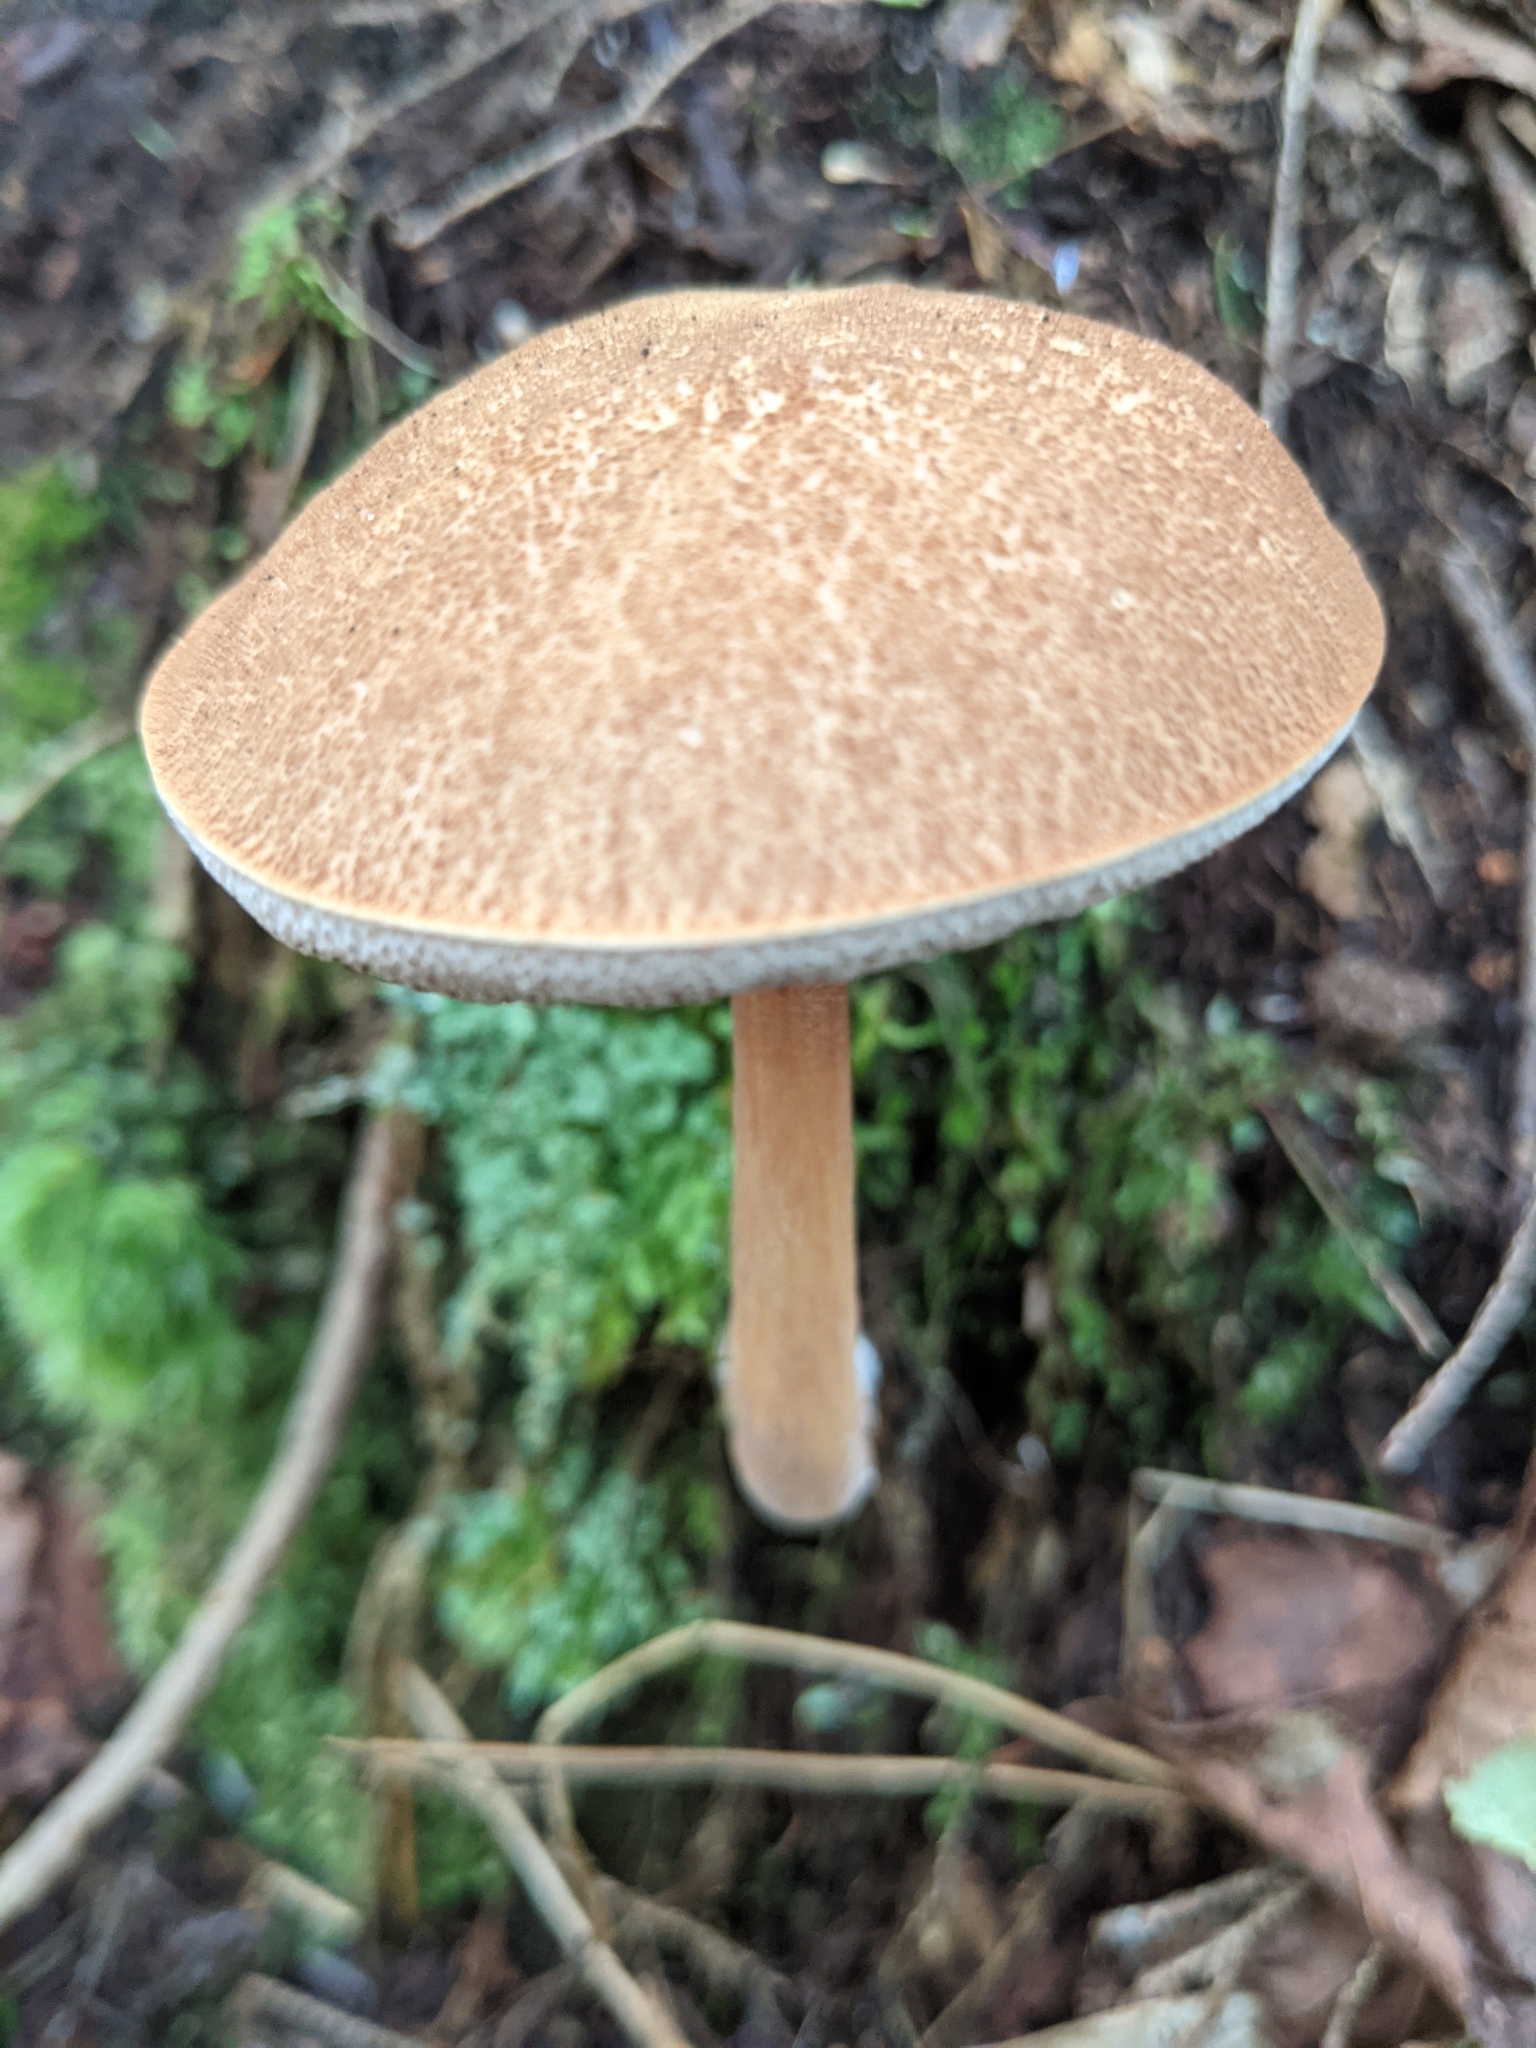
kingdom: Fungi
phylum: Basidiomycota
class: Agaricomycetes
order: Boletales
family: Boletaceae
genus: Austroboletus
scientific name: Austroboletus gracilis
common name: Graceful bolete
